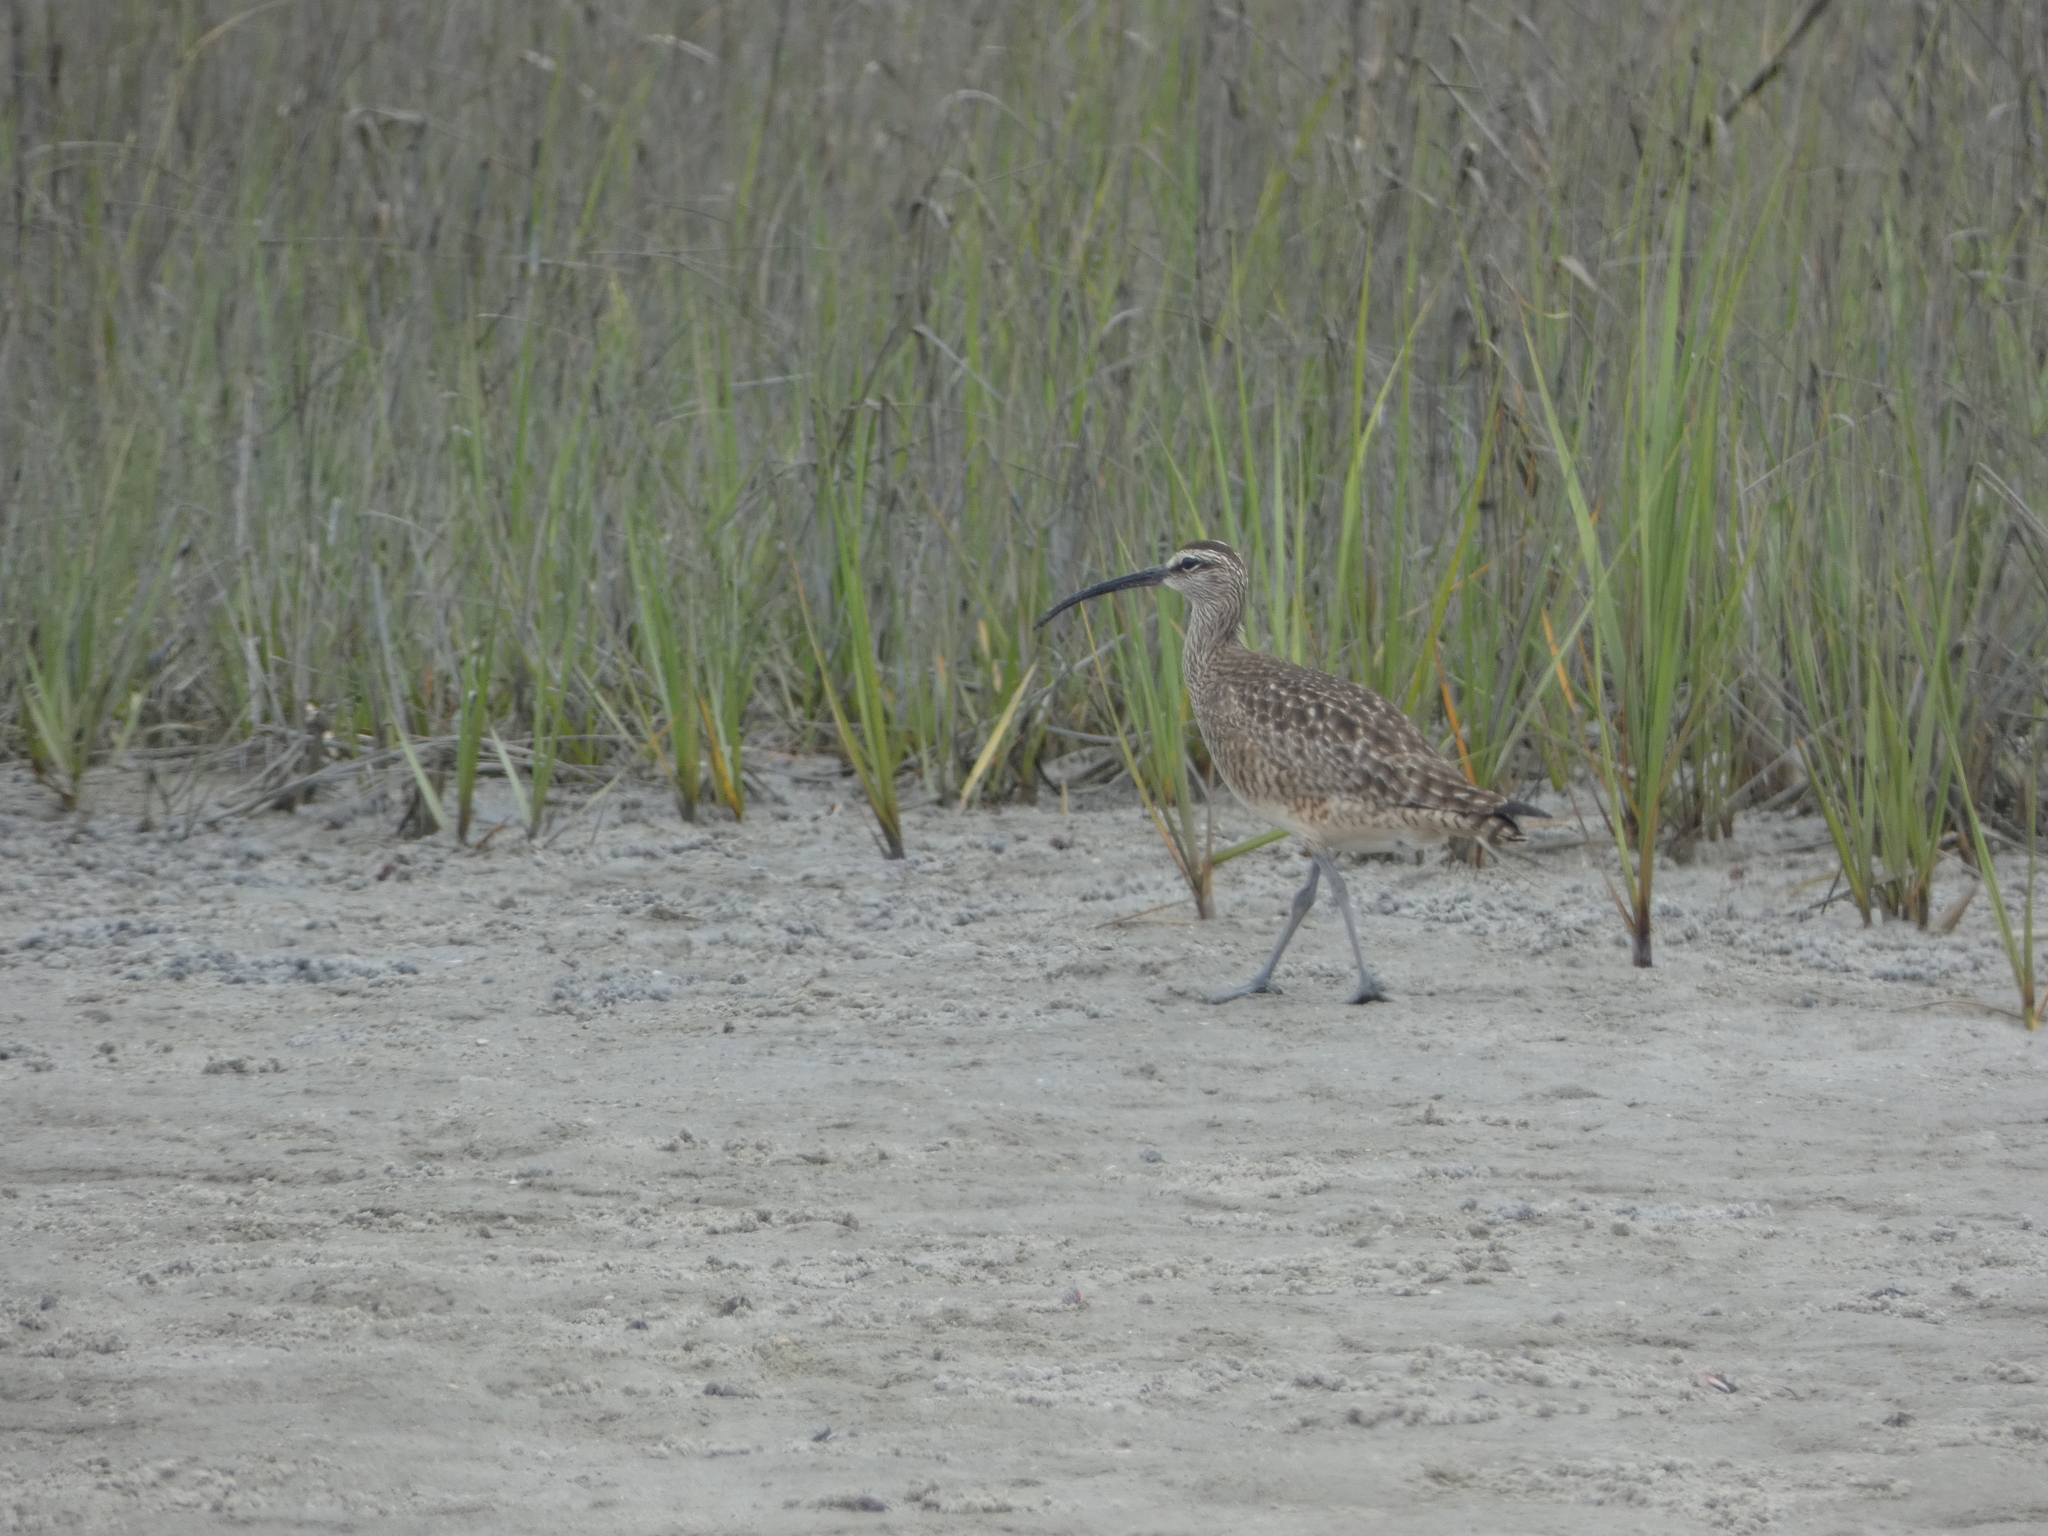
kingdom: Animalia
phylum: Chordata
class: Aves
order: Charadriiformes
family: Scolopacidae
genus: Numenius
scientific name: Numenius phaeopus
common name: Whimbrel
